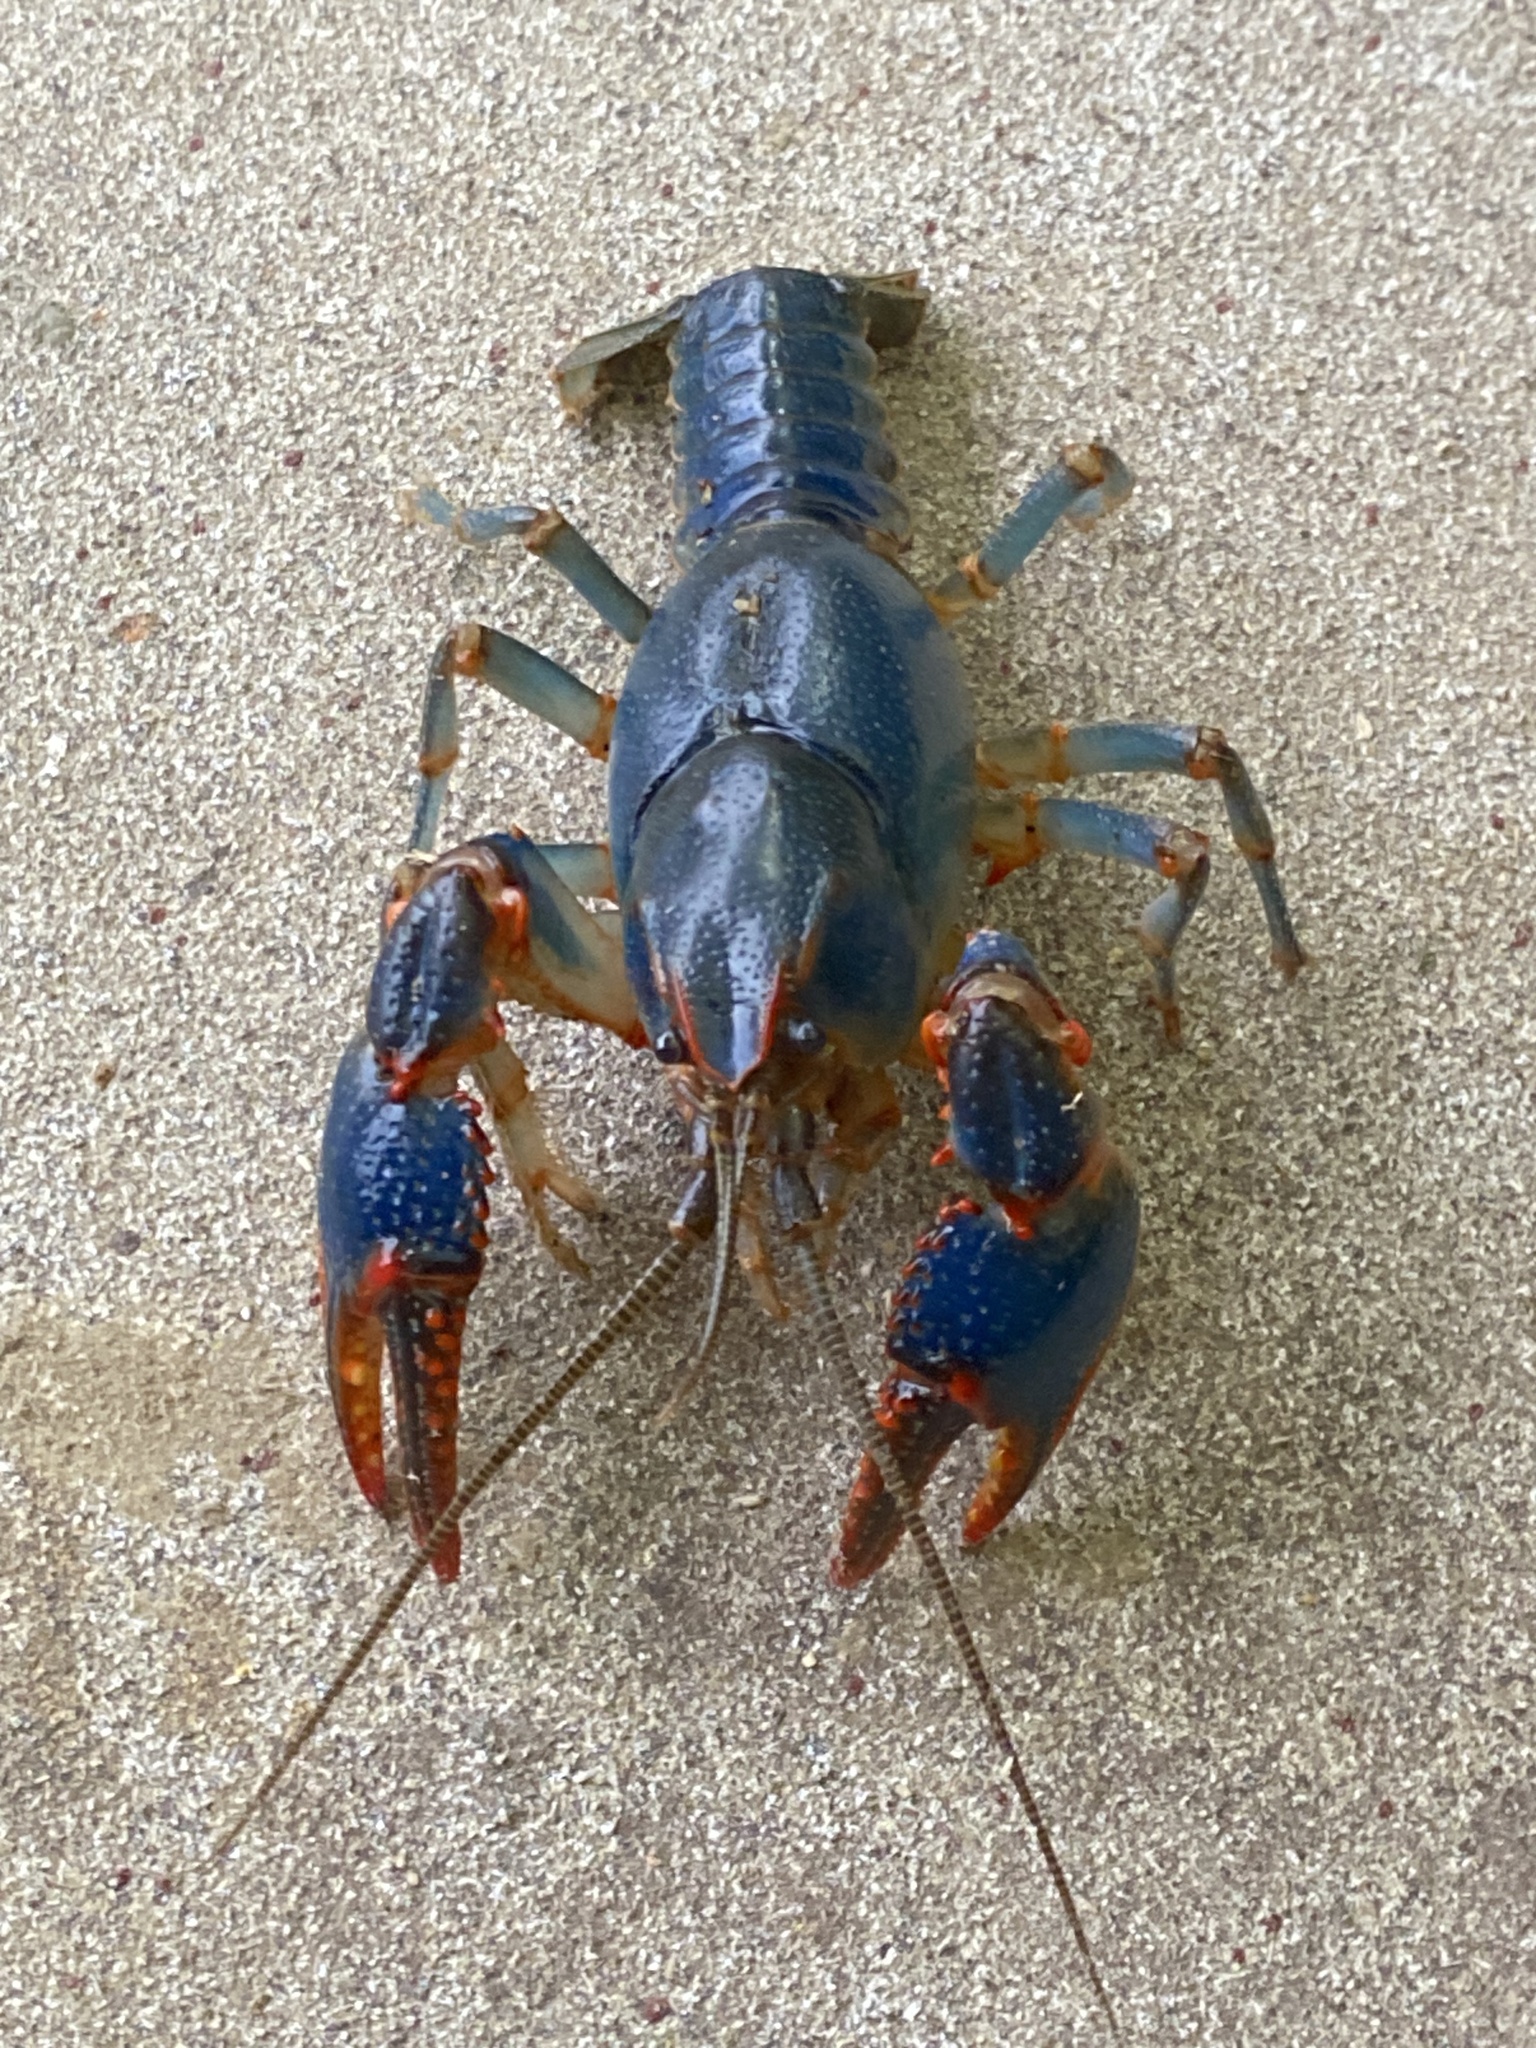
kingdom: Animalia
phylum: Arthropoda
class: Malacostraca
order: Decapoda
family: Cambaridae
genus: Cambarus
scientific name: Cambarus deweesae
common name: Valley flame crayfish
